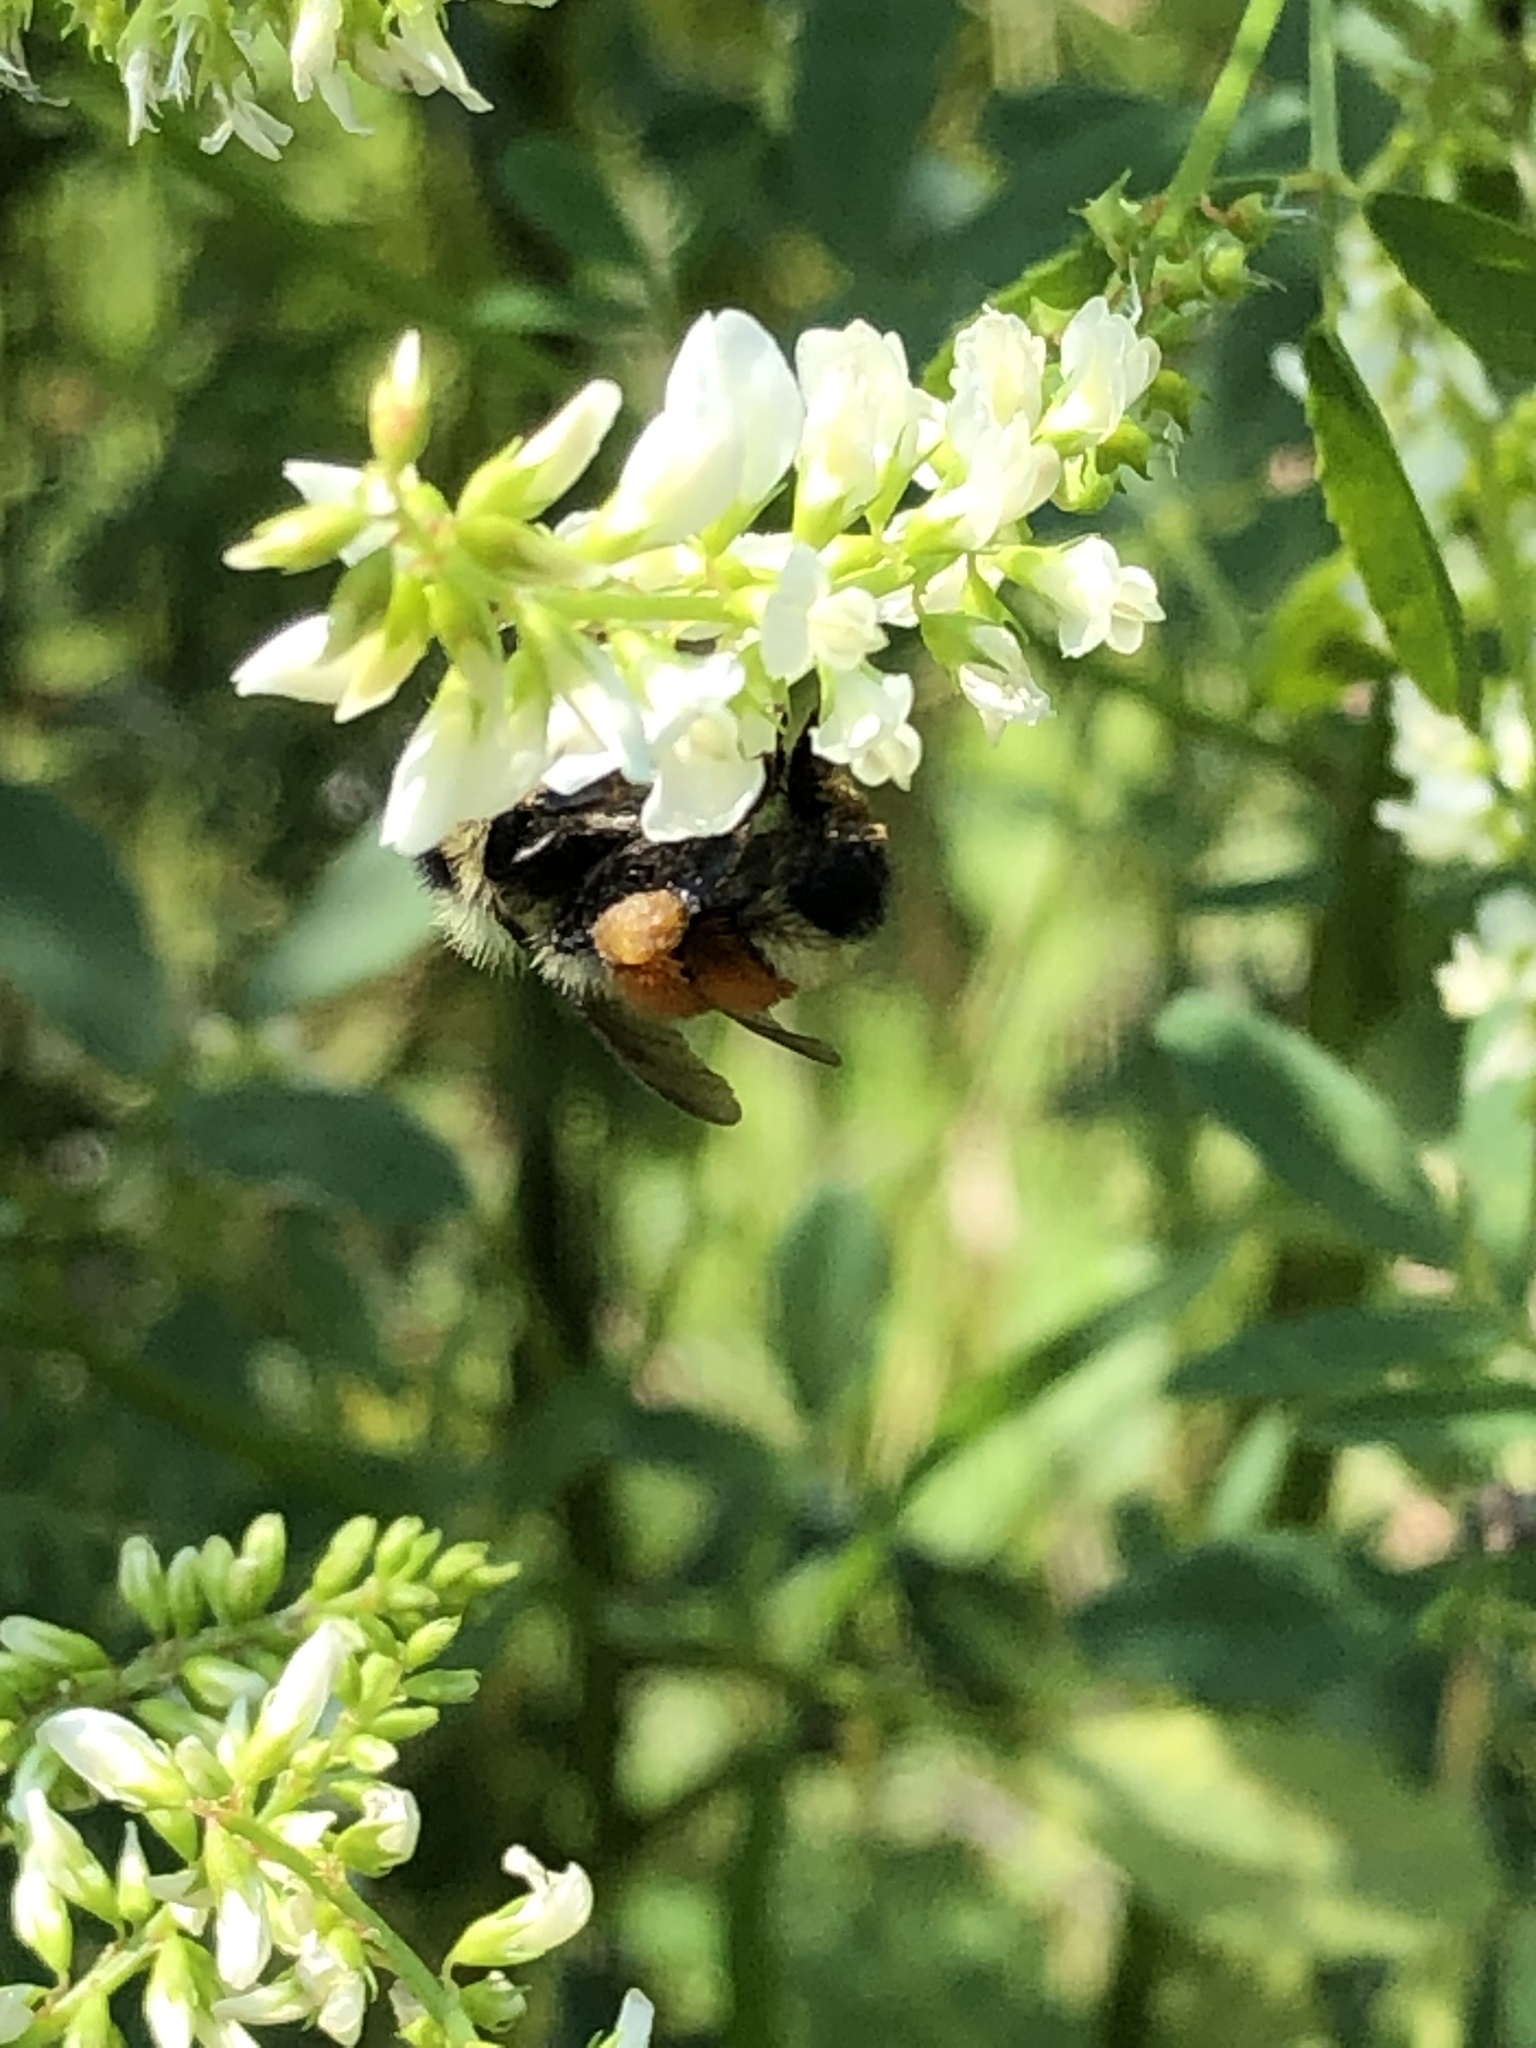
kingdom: Animalia
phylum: Arthropoda
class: Insecta
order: Hymenoptera
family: Apidae
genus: Bombus
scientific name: Bombus ternarius
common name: Tri-colored bumble bee
